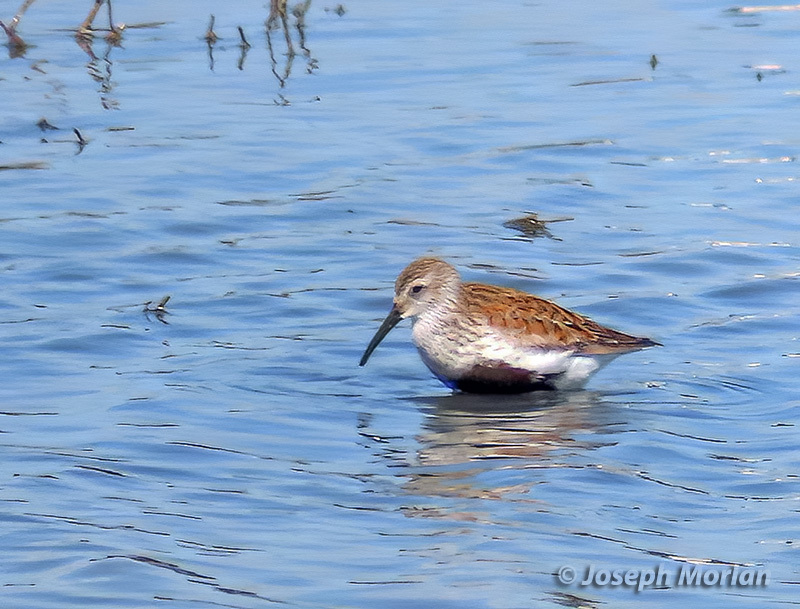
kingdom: Animalia
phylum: Chordata
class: Aves
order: Charadriiformes
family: Scolopacidae
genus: Calidris
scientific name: Calidris alpina
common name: Dunlin
